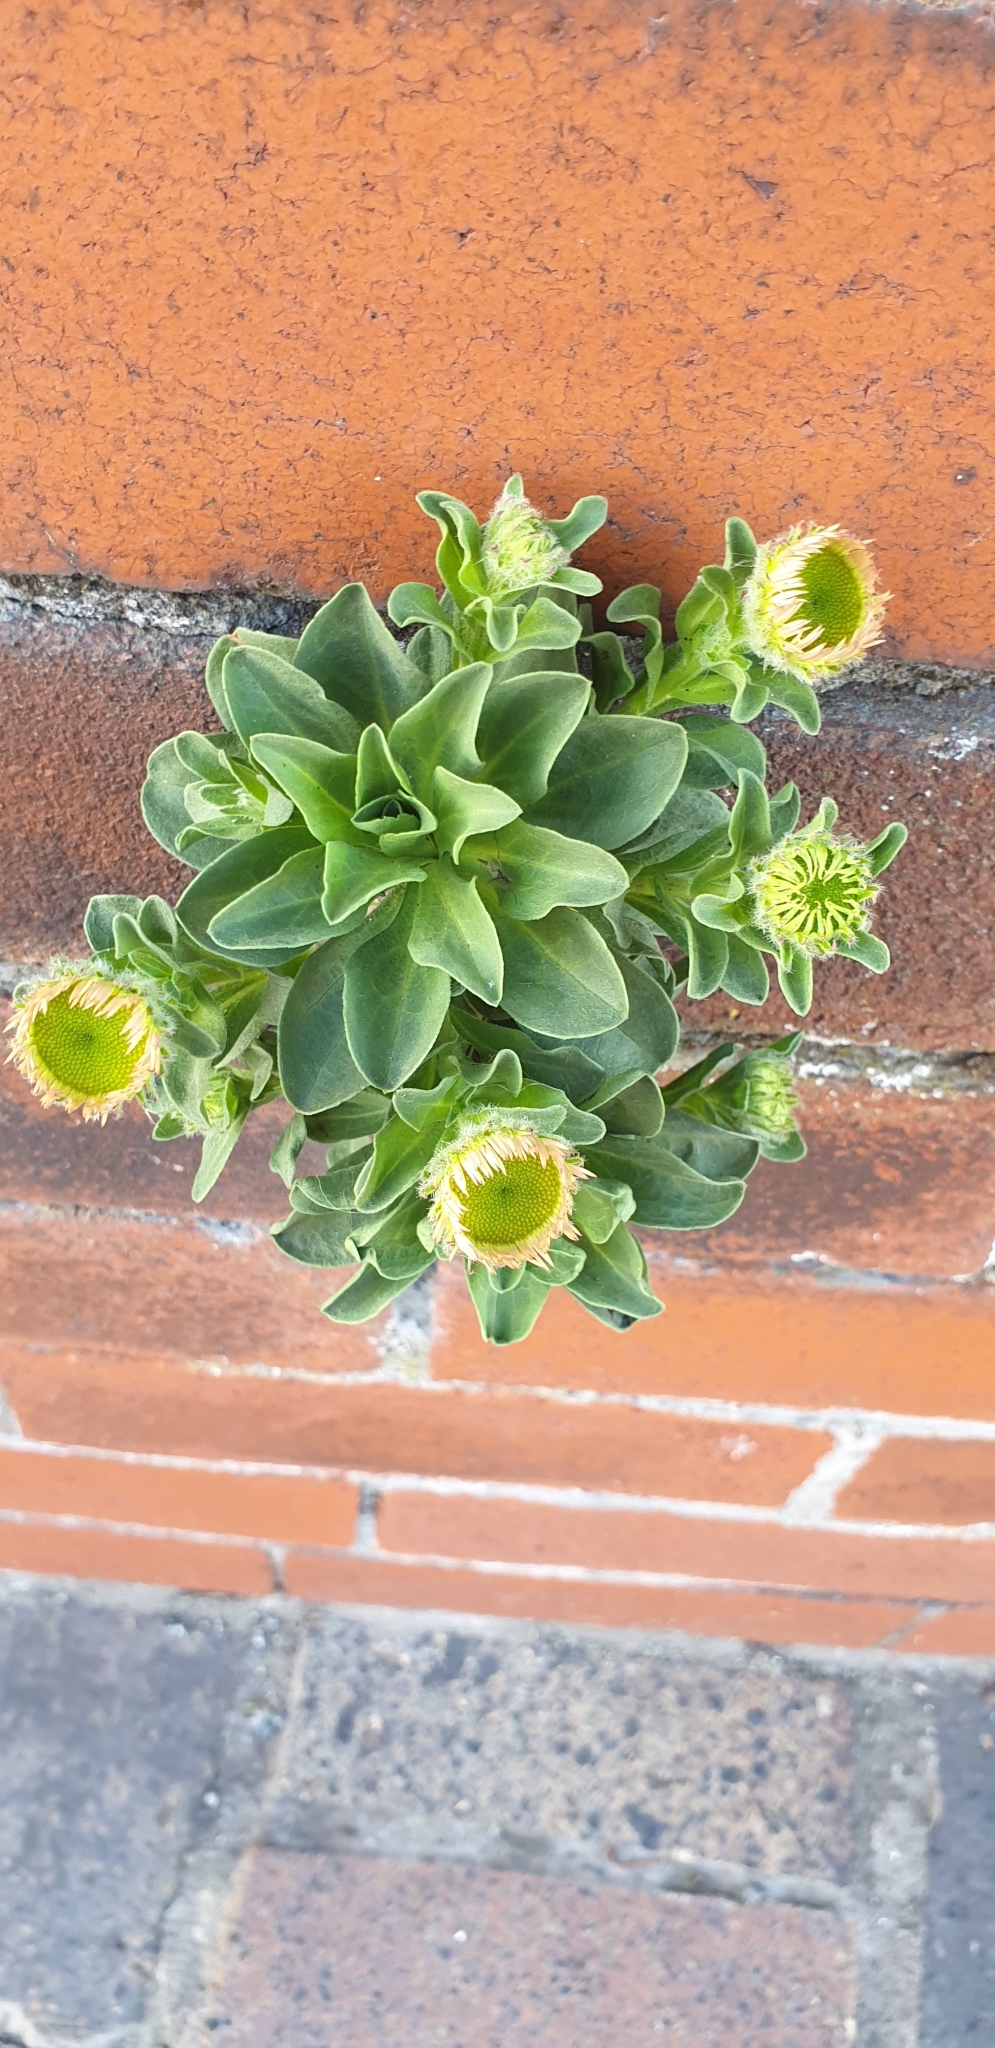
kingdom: Plantae
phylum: Tracheophyta
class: Magnoliopsida
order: Asterales
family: Asteraceae
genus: Erigeron
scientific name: Erigeron glaucus
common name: Seaside daisy
